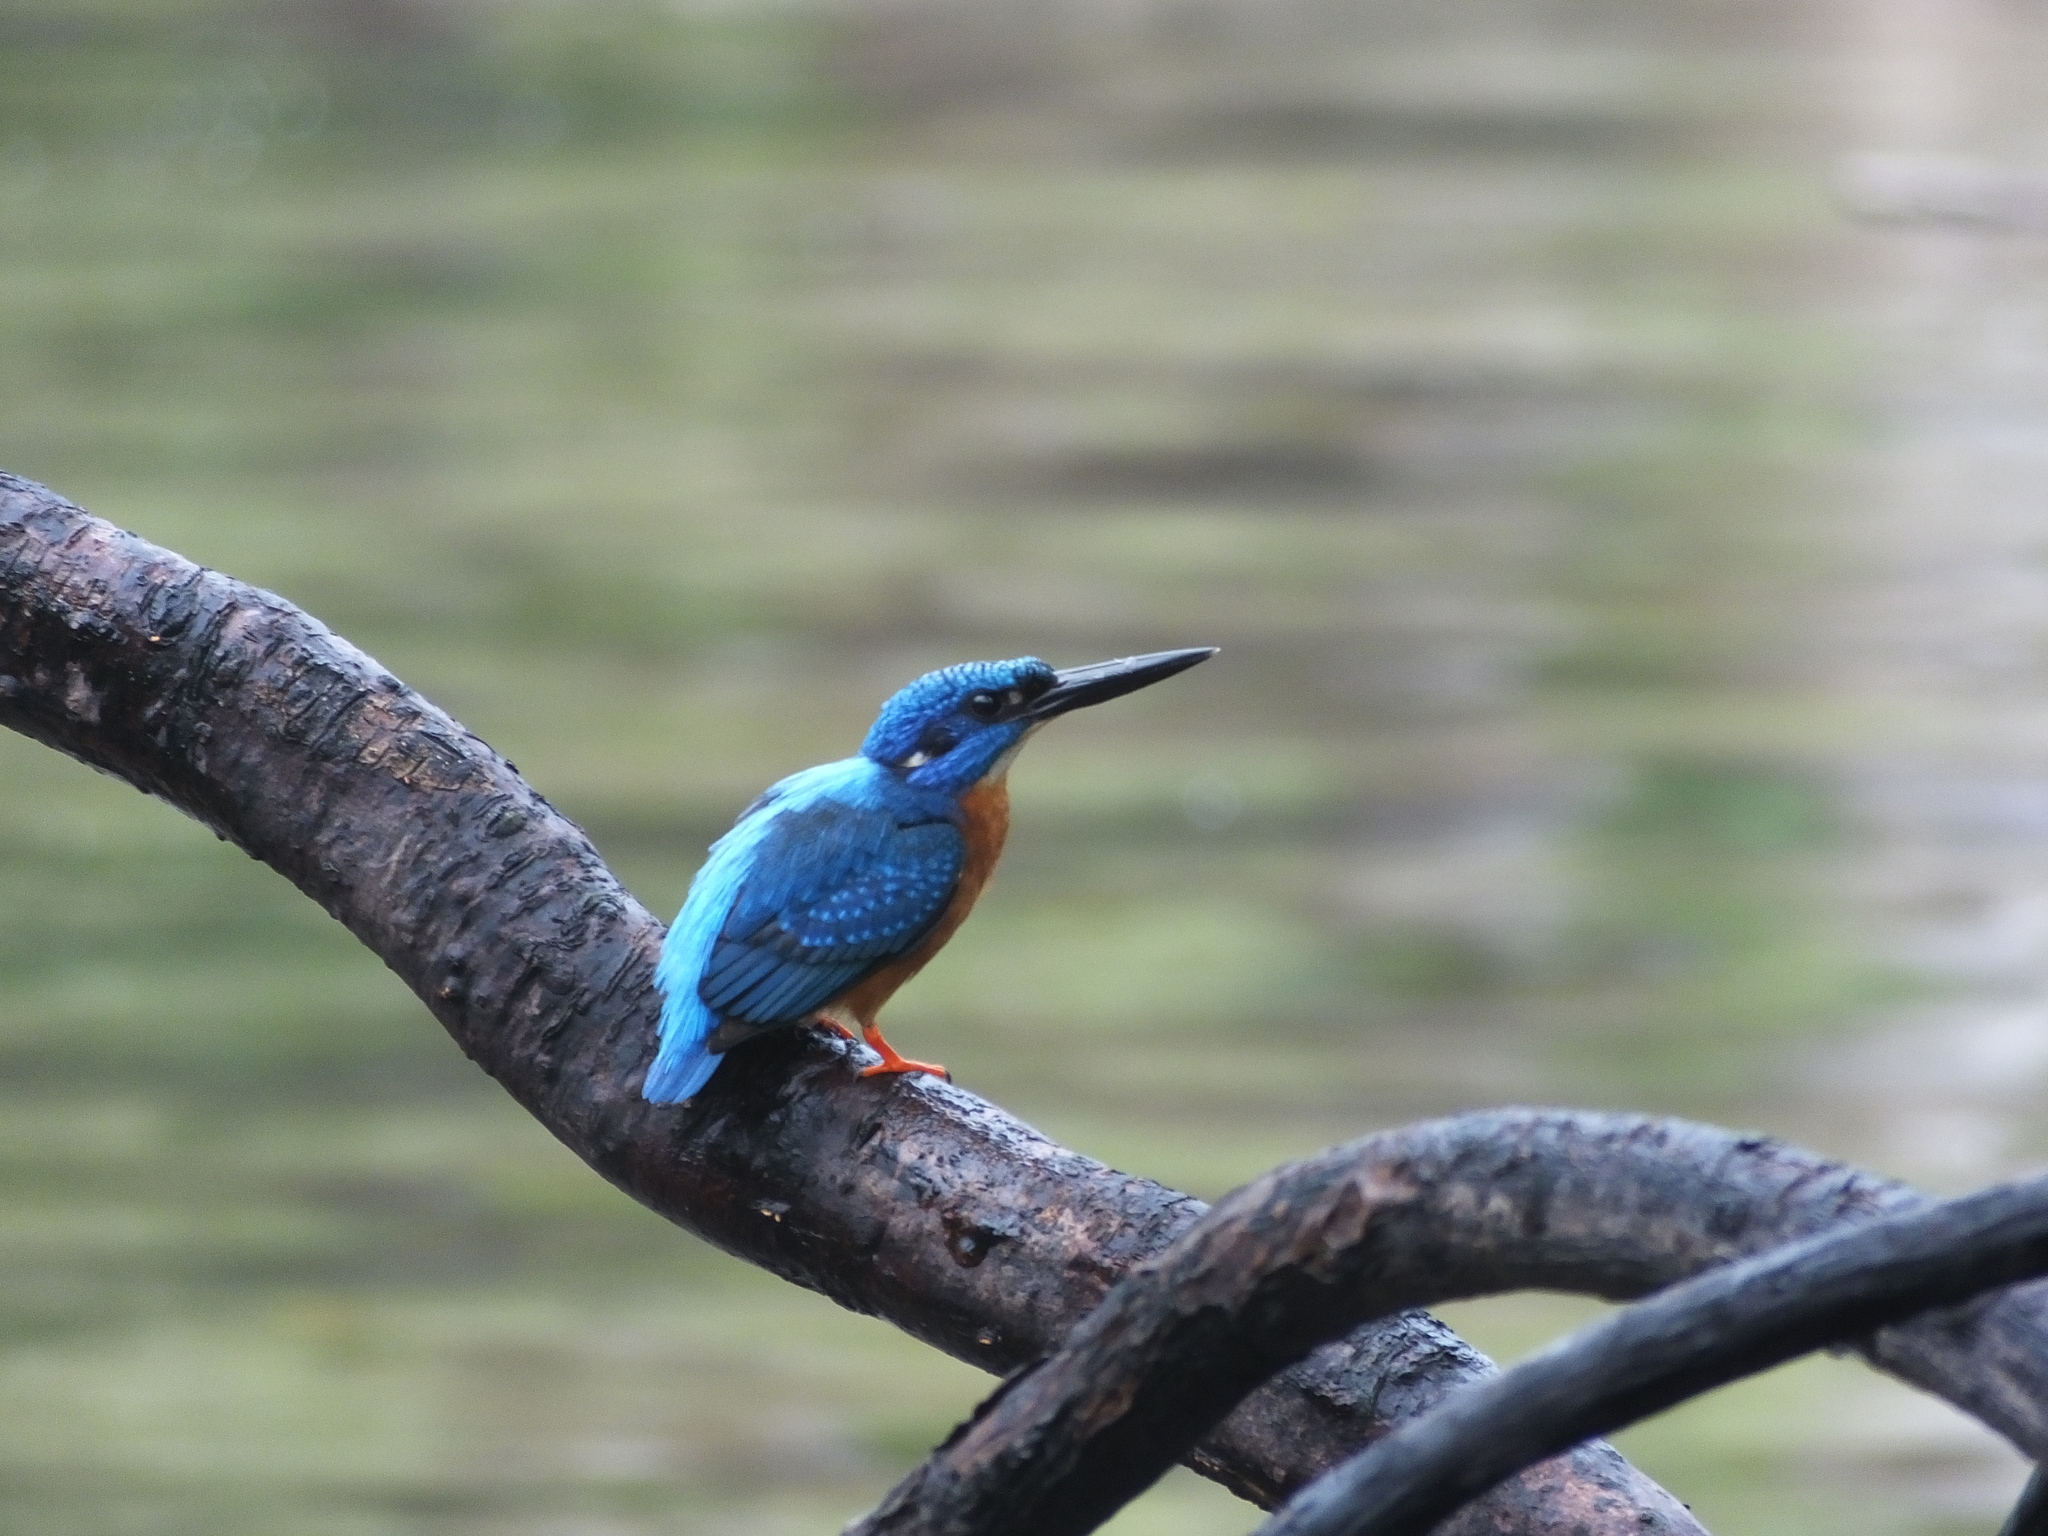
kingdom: Animalia
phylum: Chordata
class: Aves
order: Coraciiformes
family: Alcedinidae
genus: Alcedo
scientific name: Alcedo atthis
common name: Common kingfisher
